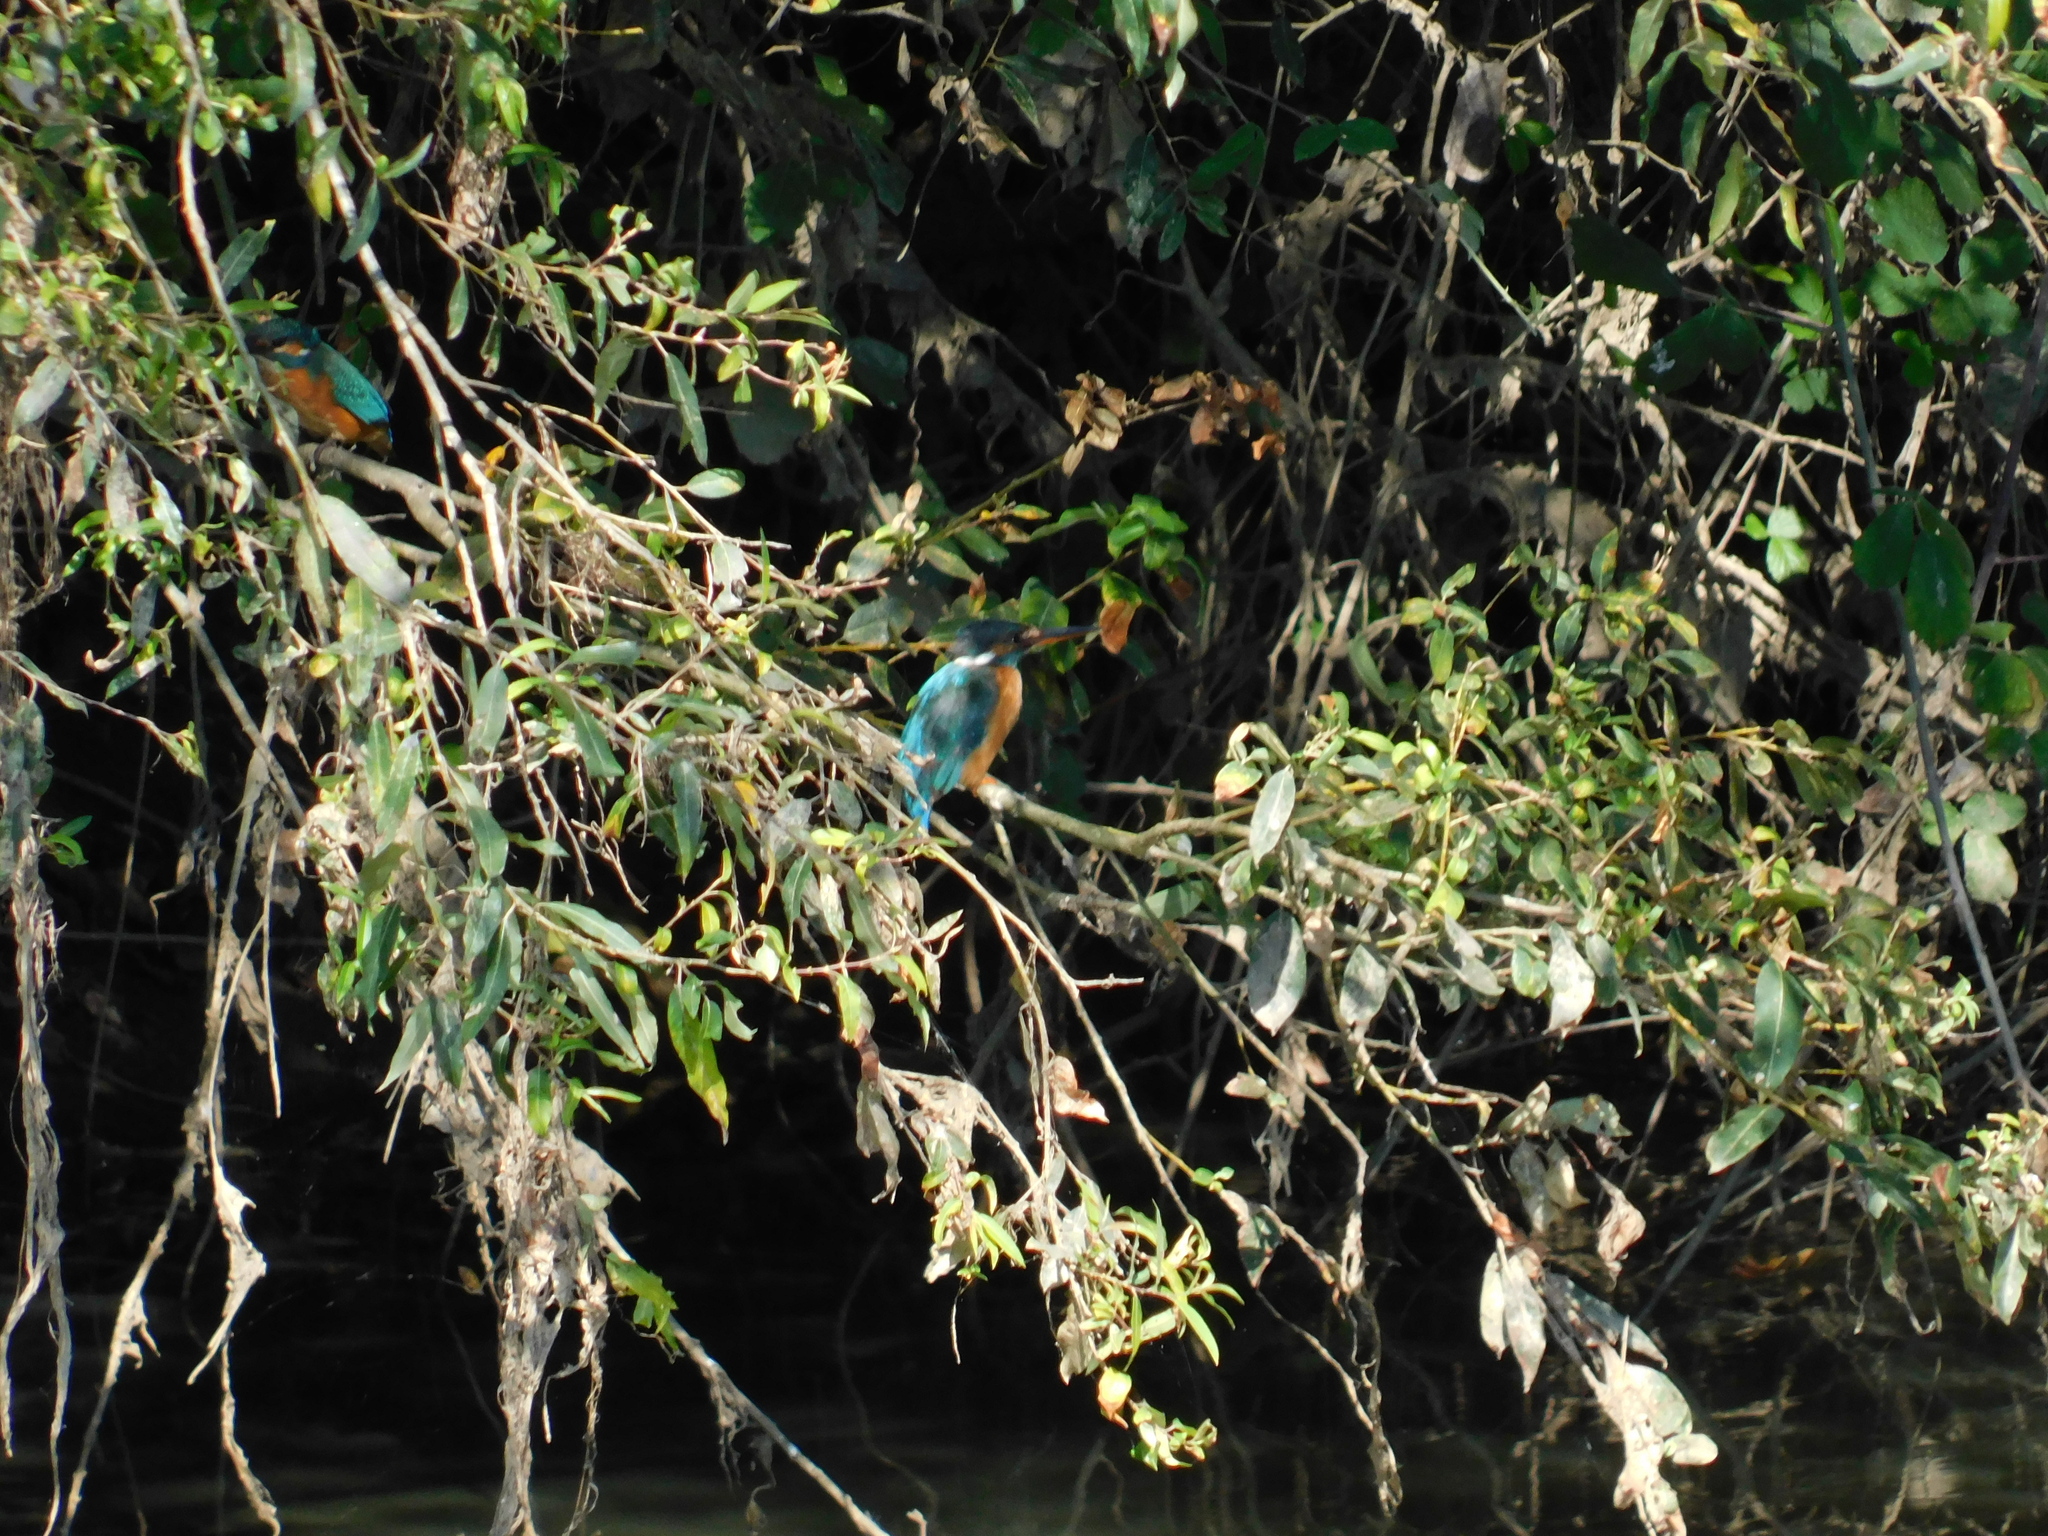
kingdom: Animalia
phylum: Chordata
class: Aves
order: Coraciiformes
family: Alcedinidae
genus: Alcedo
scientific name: Alcedo atthis
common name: Common kingfisher
